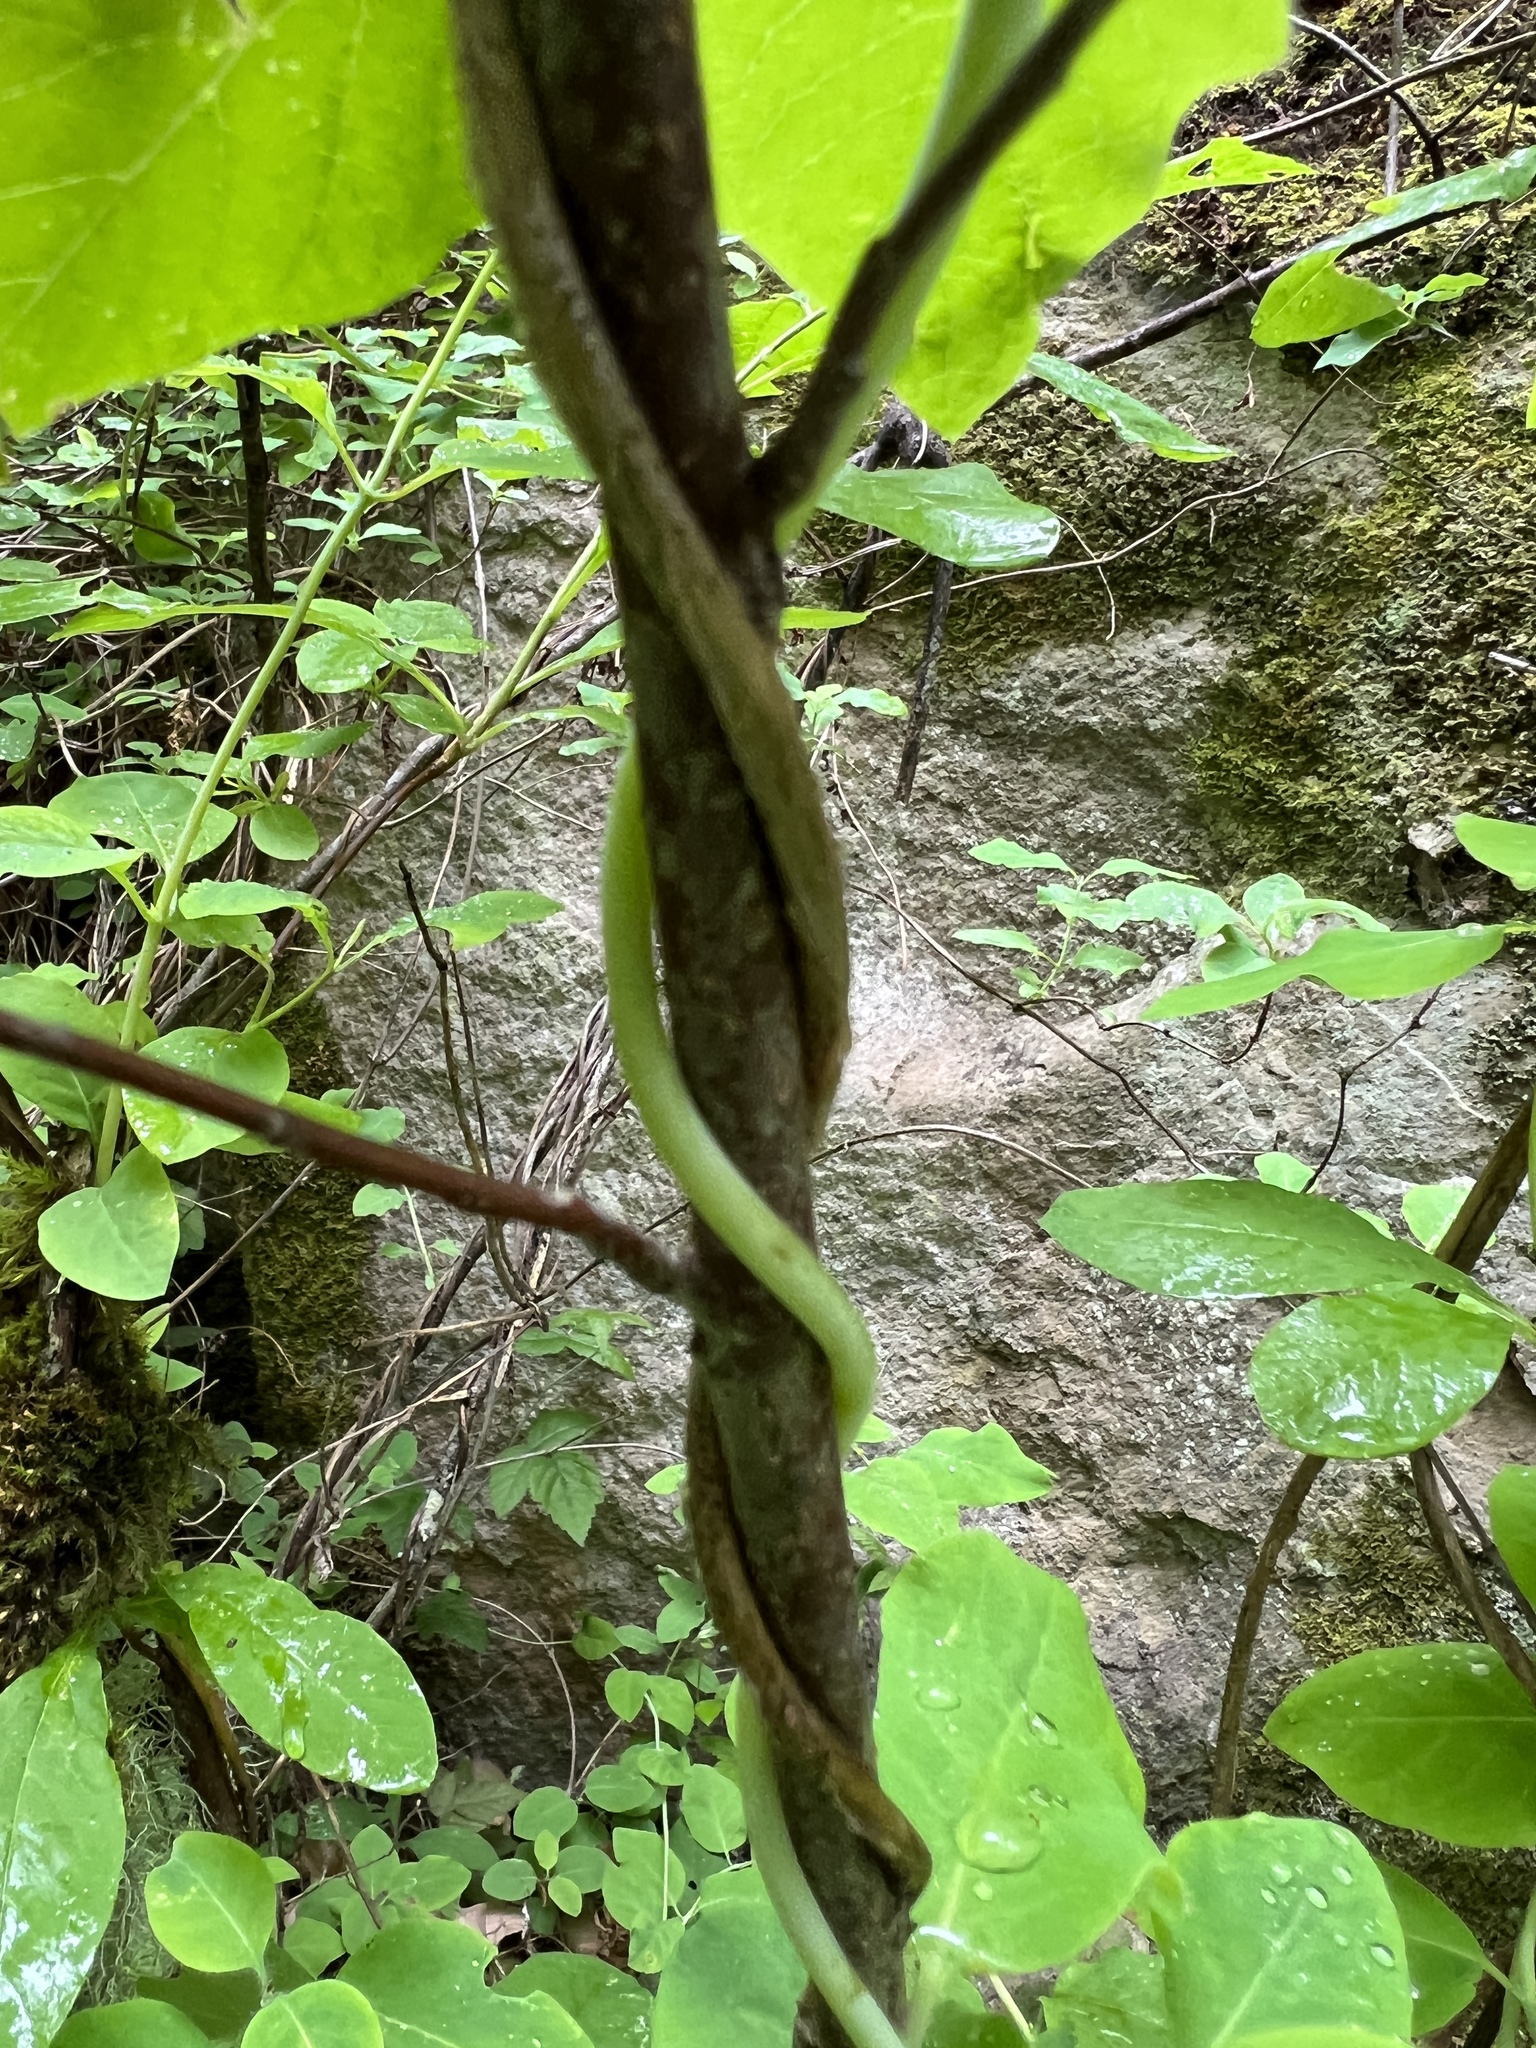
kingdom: Plantae
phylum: Tracheophyta
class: Magnoliopsida
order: Dipsacales
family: Caprifoliaceae
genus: Lonicera
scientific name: Lonicera ciliosa
